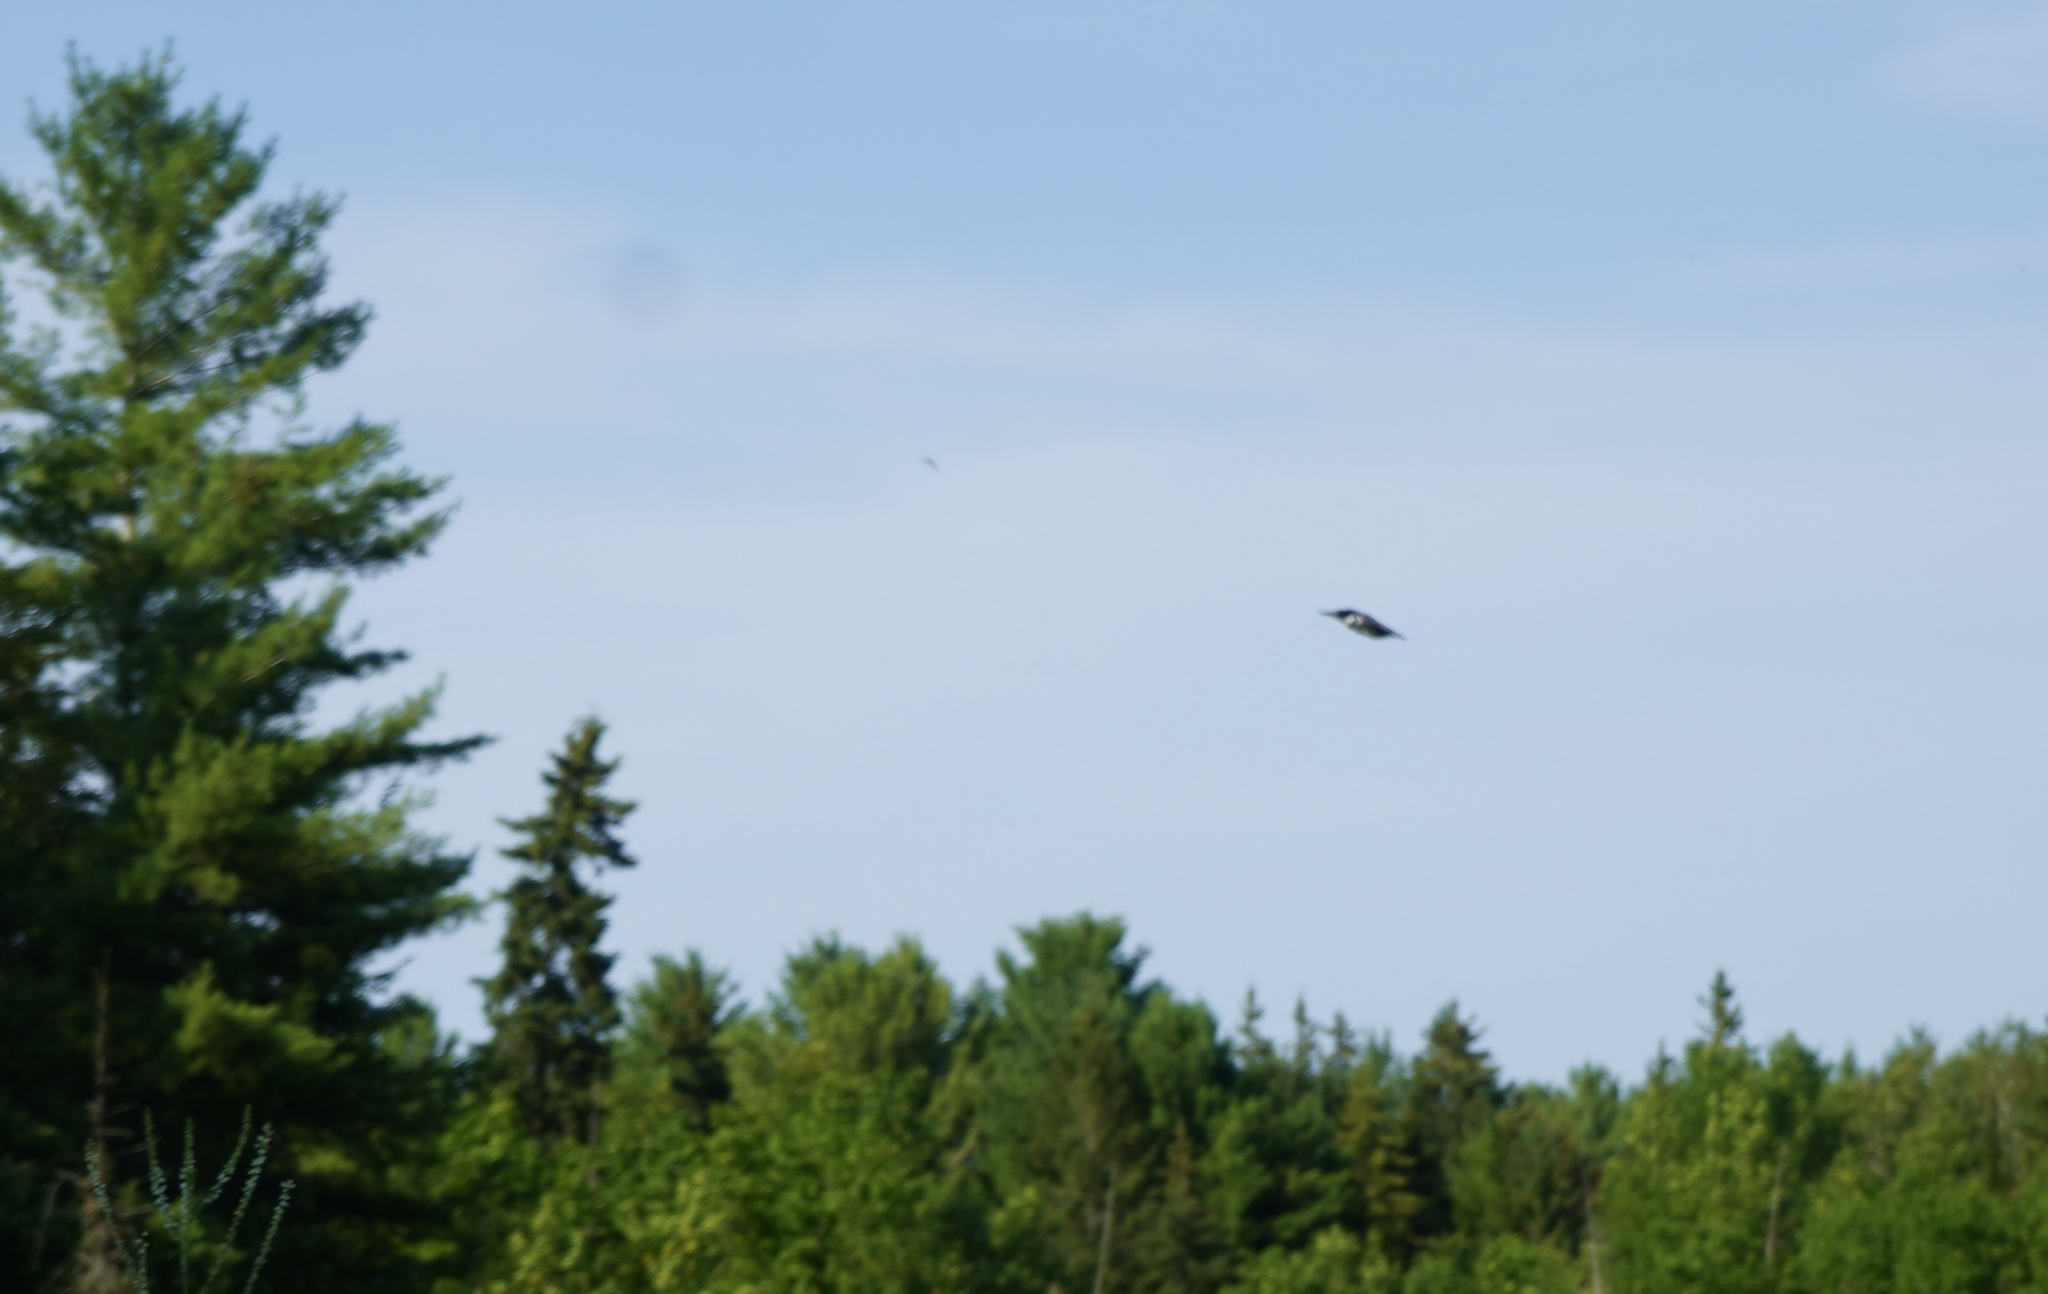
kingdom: Animalia
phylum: Chordata
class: Aves
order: Coraciiformes
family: Alcedinidae
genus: Megaceryle
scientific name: Megaceryle alcyon
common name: Belted kingfisher
